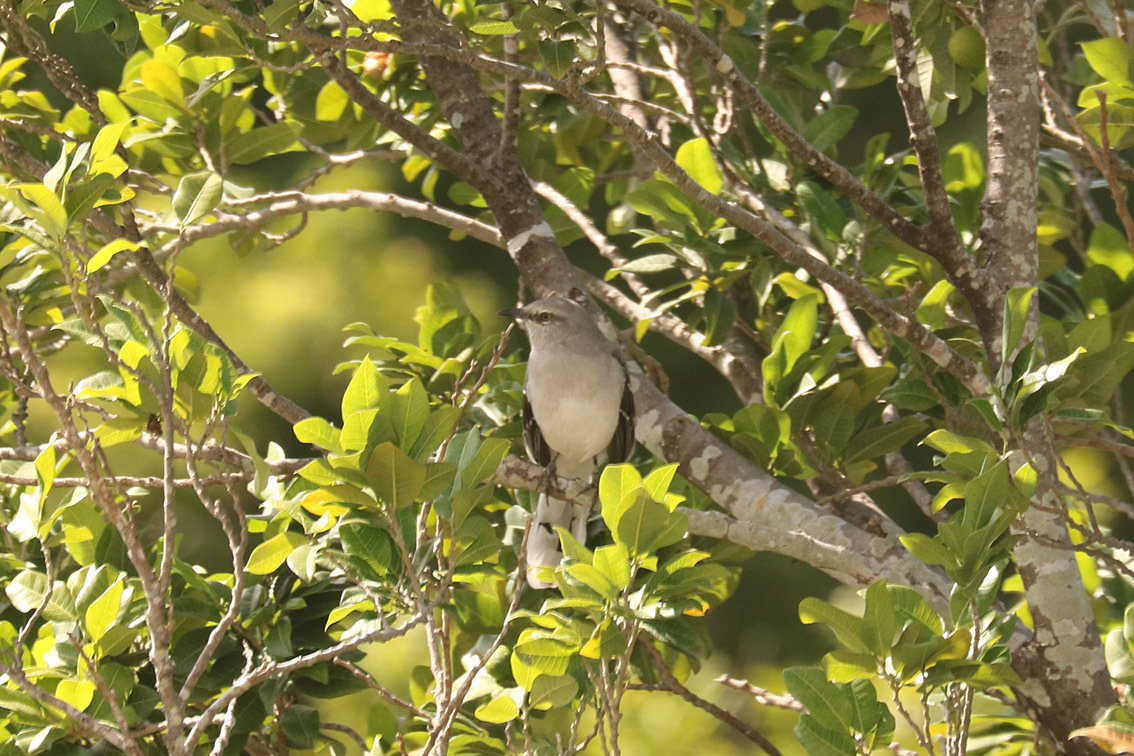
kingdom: Animalia
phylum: Chordata
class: Aves
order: Passeriformes
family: Mimidae
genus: Mimus
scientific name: Mimus gilvus
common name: Tropical mockingbird
